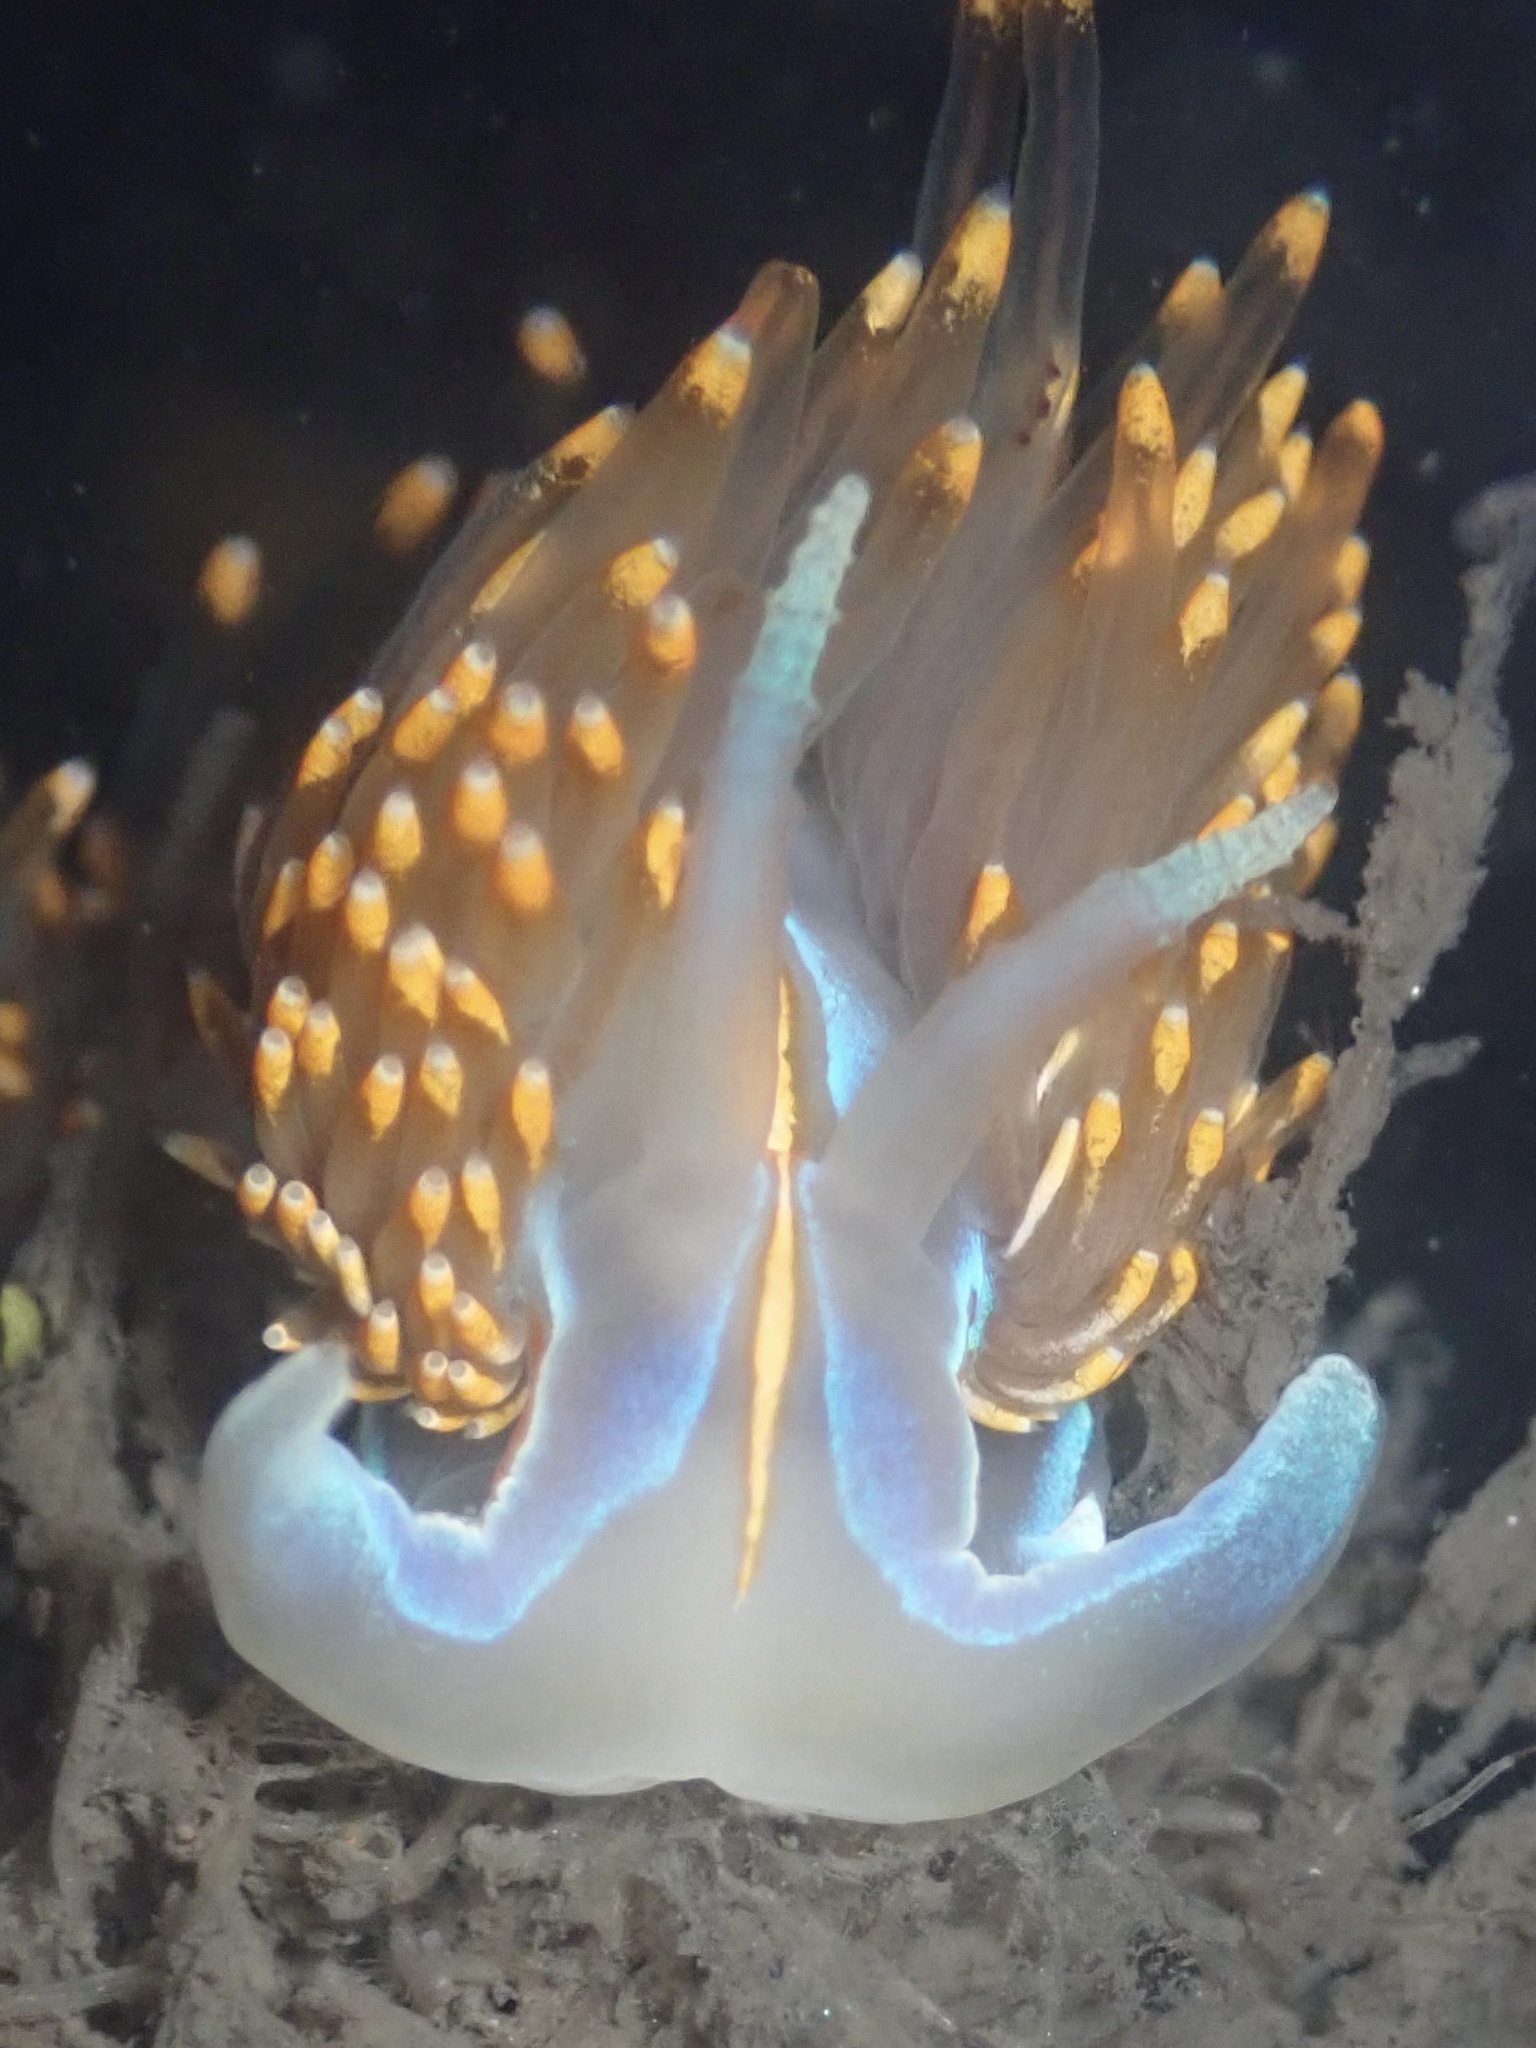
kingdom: Animalia
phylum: Mollusca
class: Gastropoda
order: Nudibranchia
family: Myrrhinidae
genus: Hermissenda
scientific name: Hermissenda opalescens
